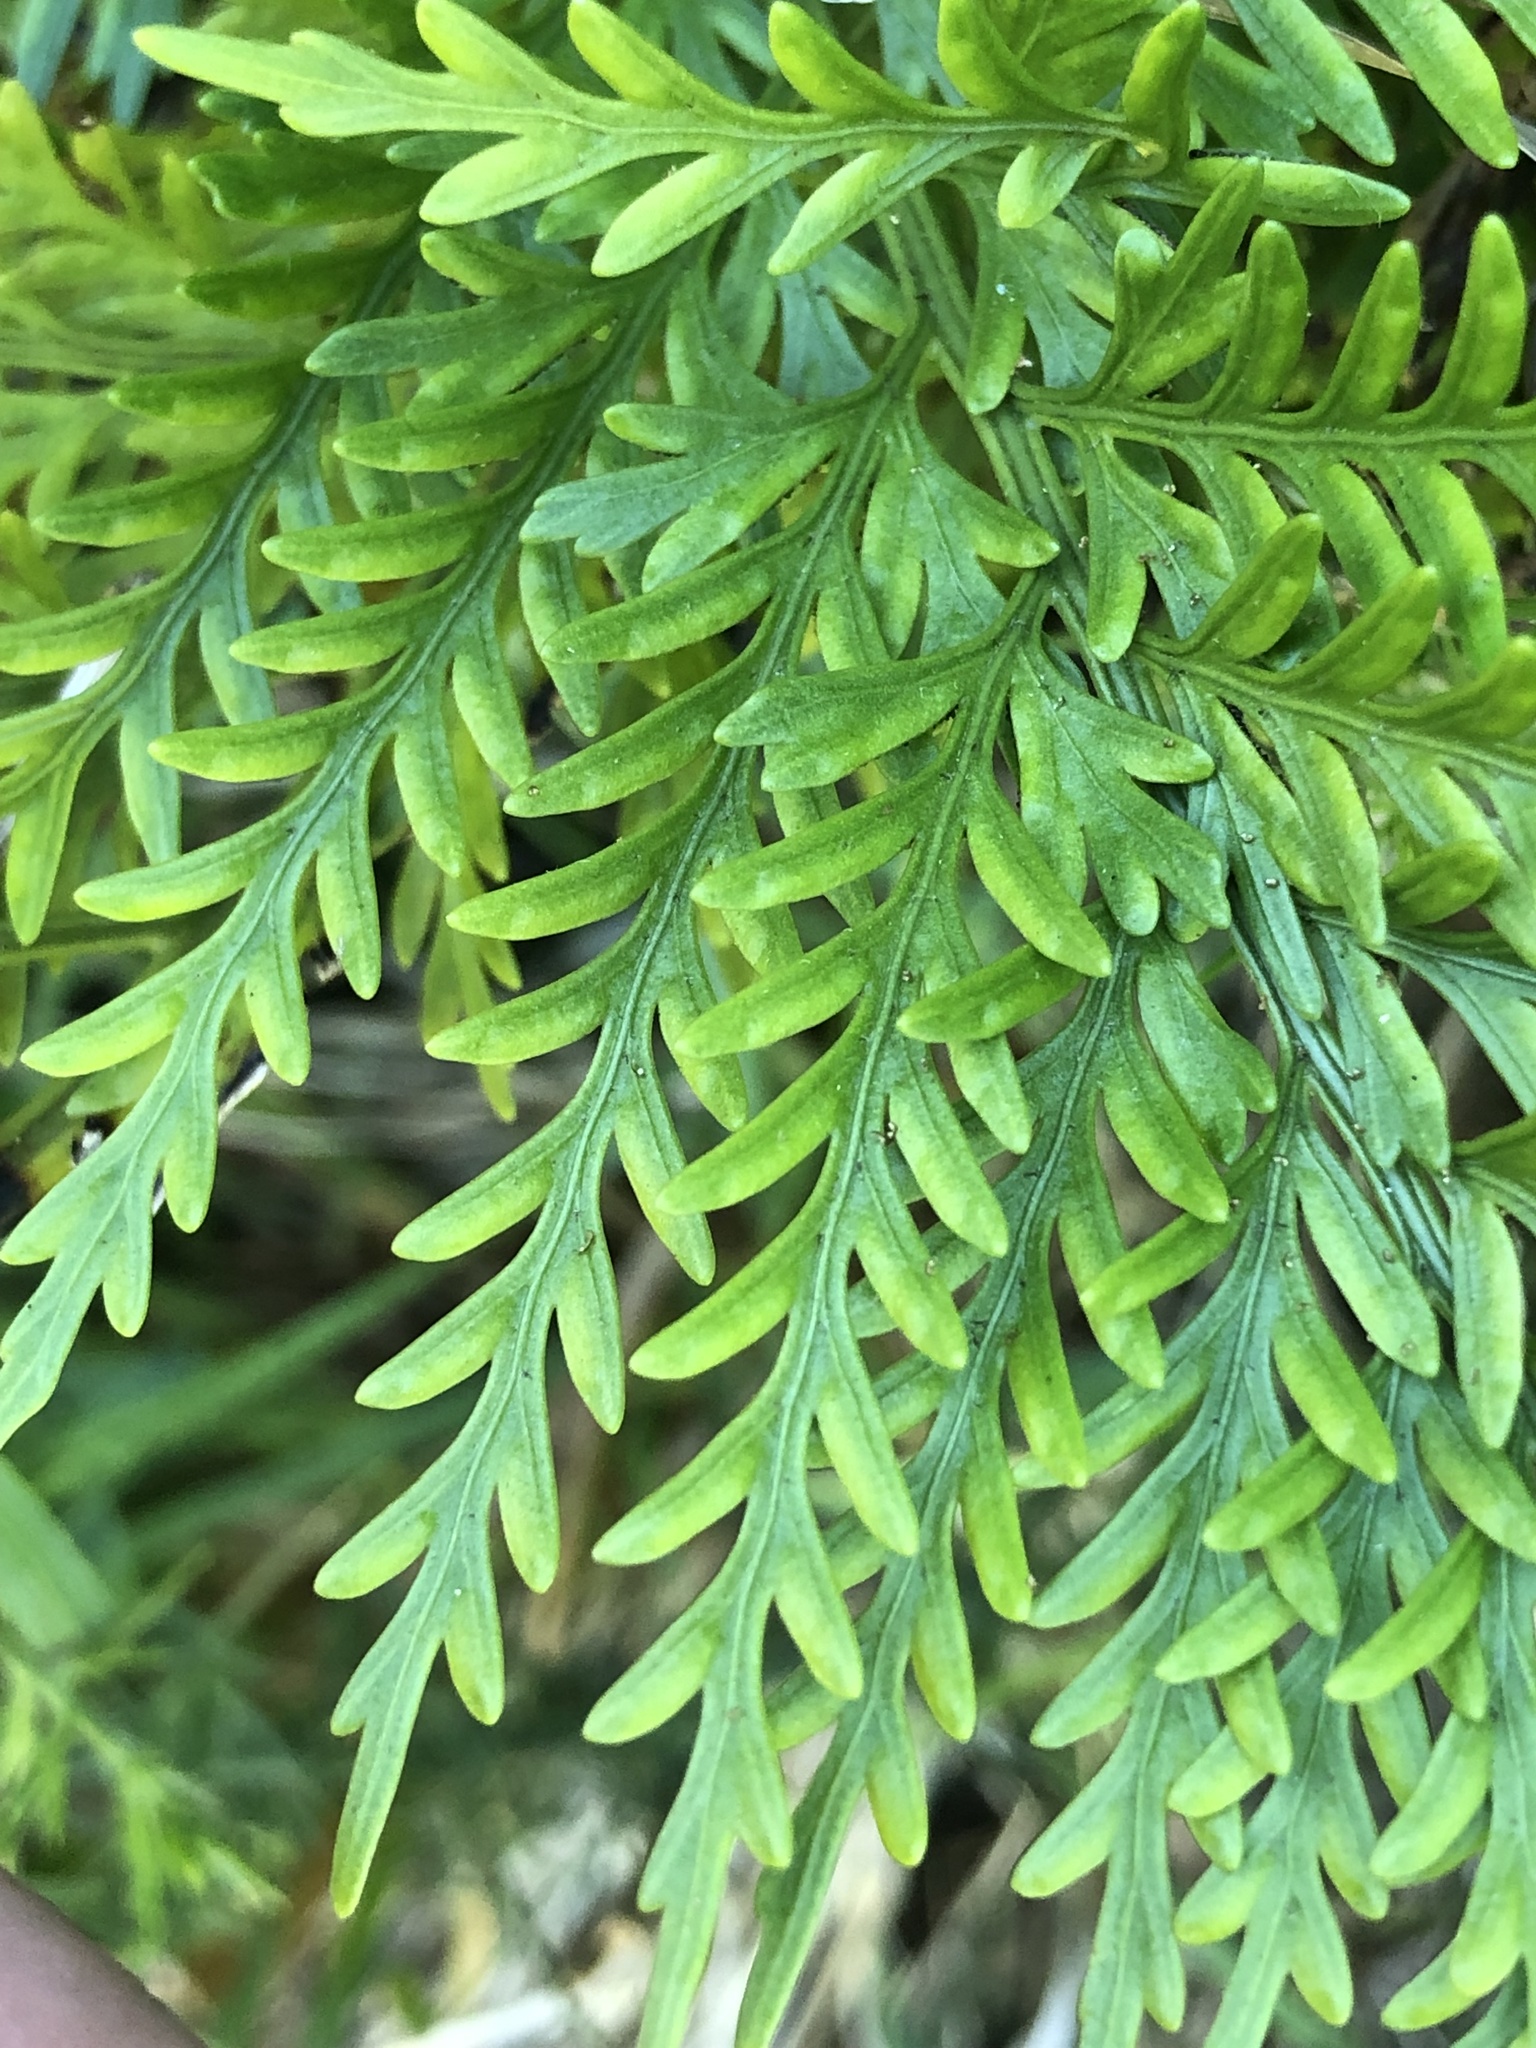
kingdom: Plantae
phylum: Tracheophyta
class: Polypodiopsida
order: Polypodiales
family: Aspleniaceae
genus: Asplenium
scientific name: Asplenium appendiculatum
